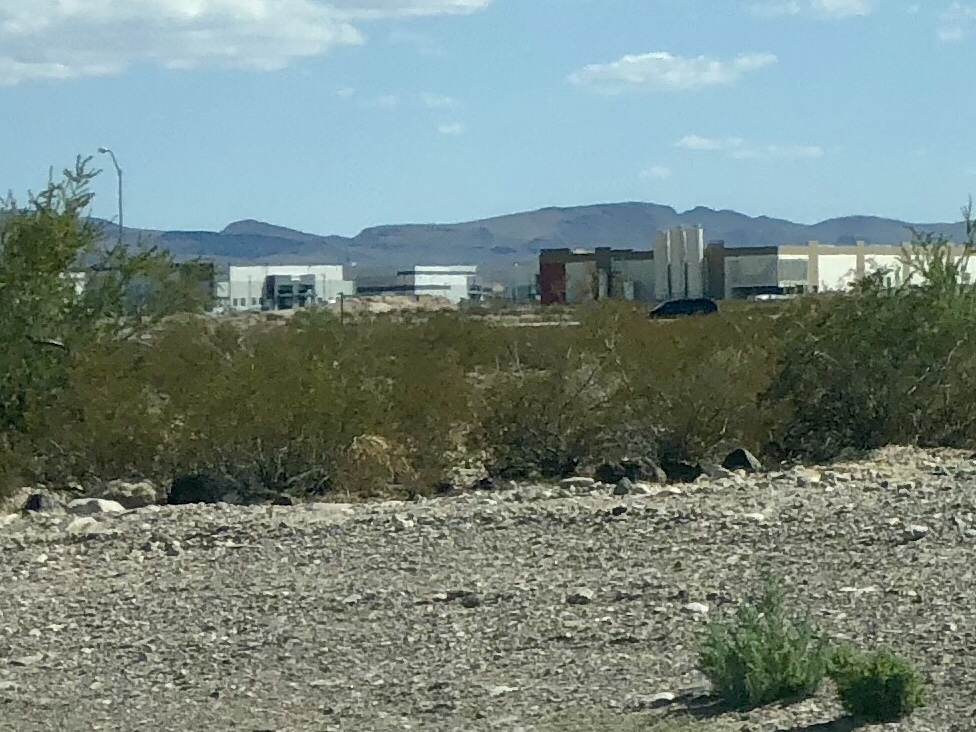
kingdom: Plantae
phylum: Tracheophyta
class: Magnoliopsida
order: Zygophyllales
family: Zygophyllaceae
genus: Larrea
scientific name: Larrea tridentata
